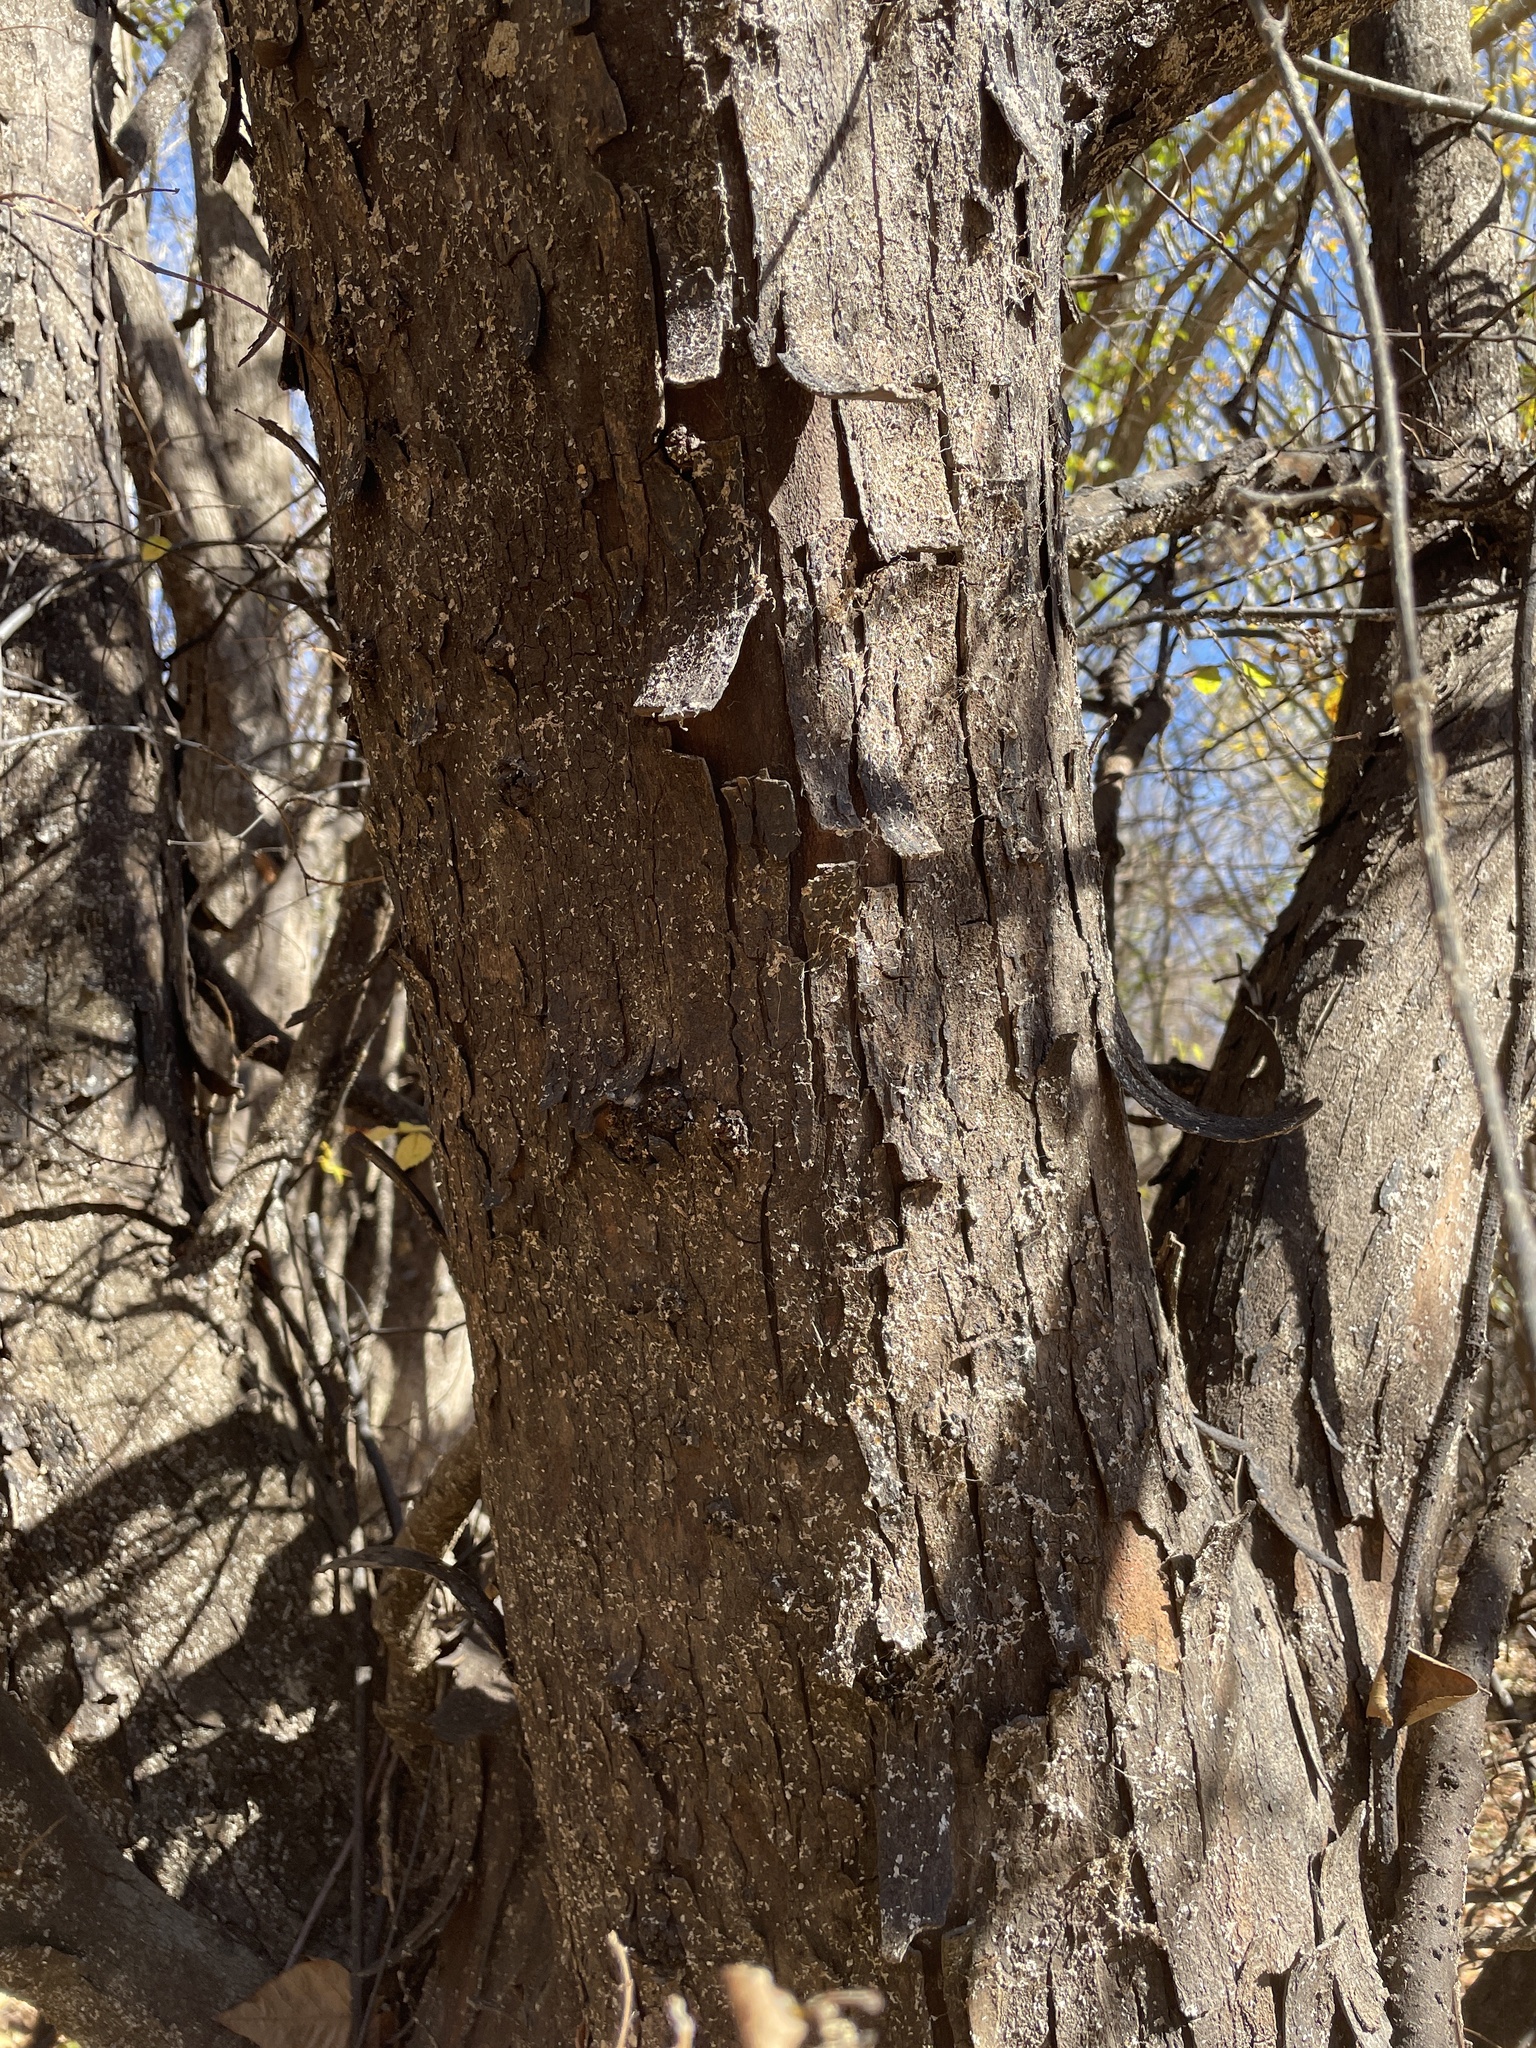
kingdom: Plantae
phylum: Tracheophyta
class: Magnoliopsida
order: Rosales
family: Ulmaceae
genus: Planera
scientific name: Planera aquatica
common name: Water-elm
